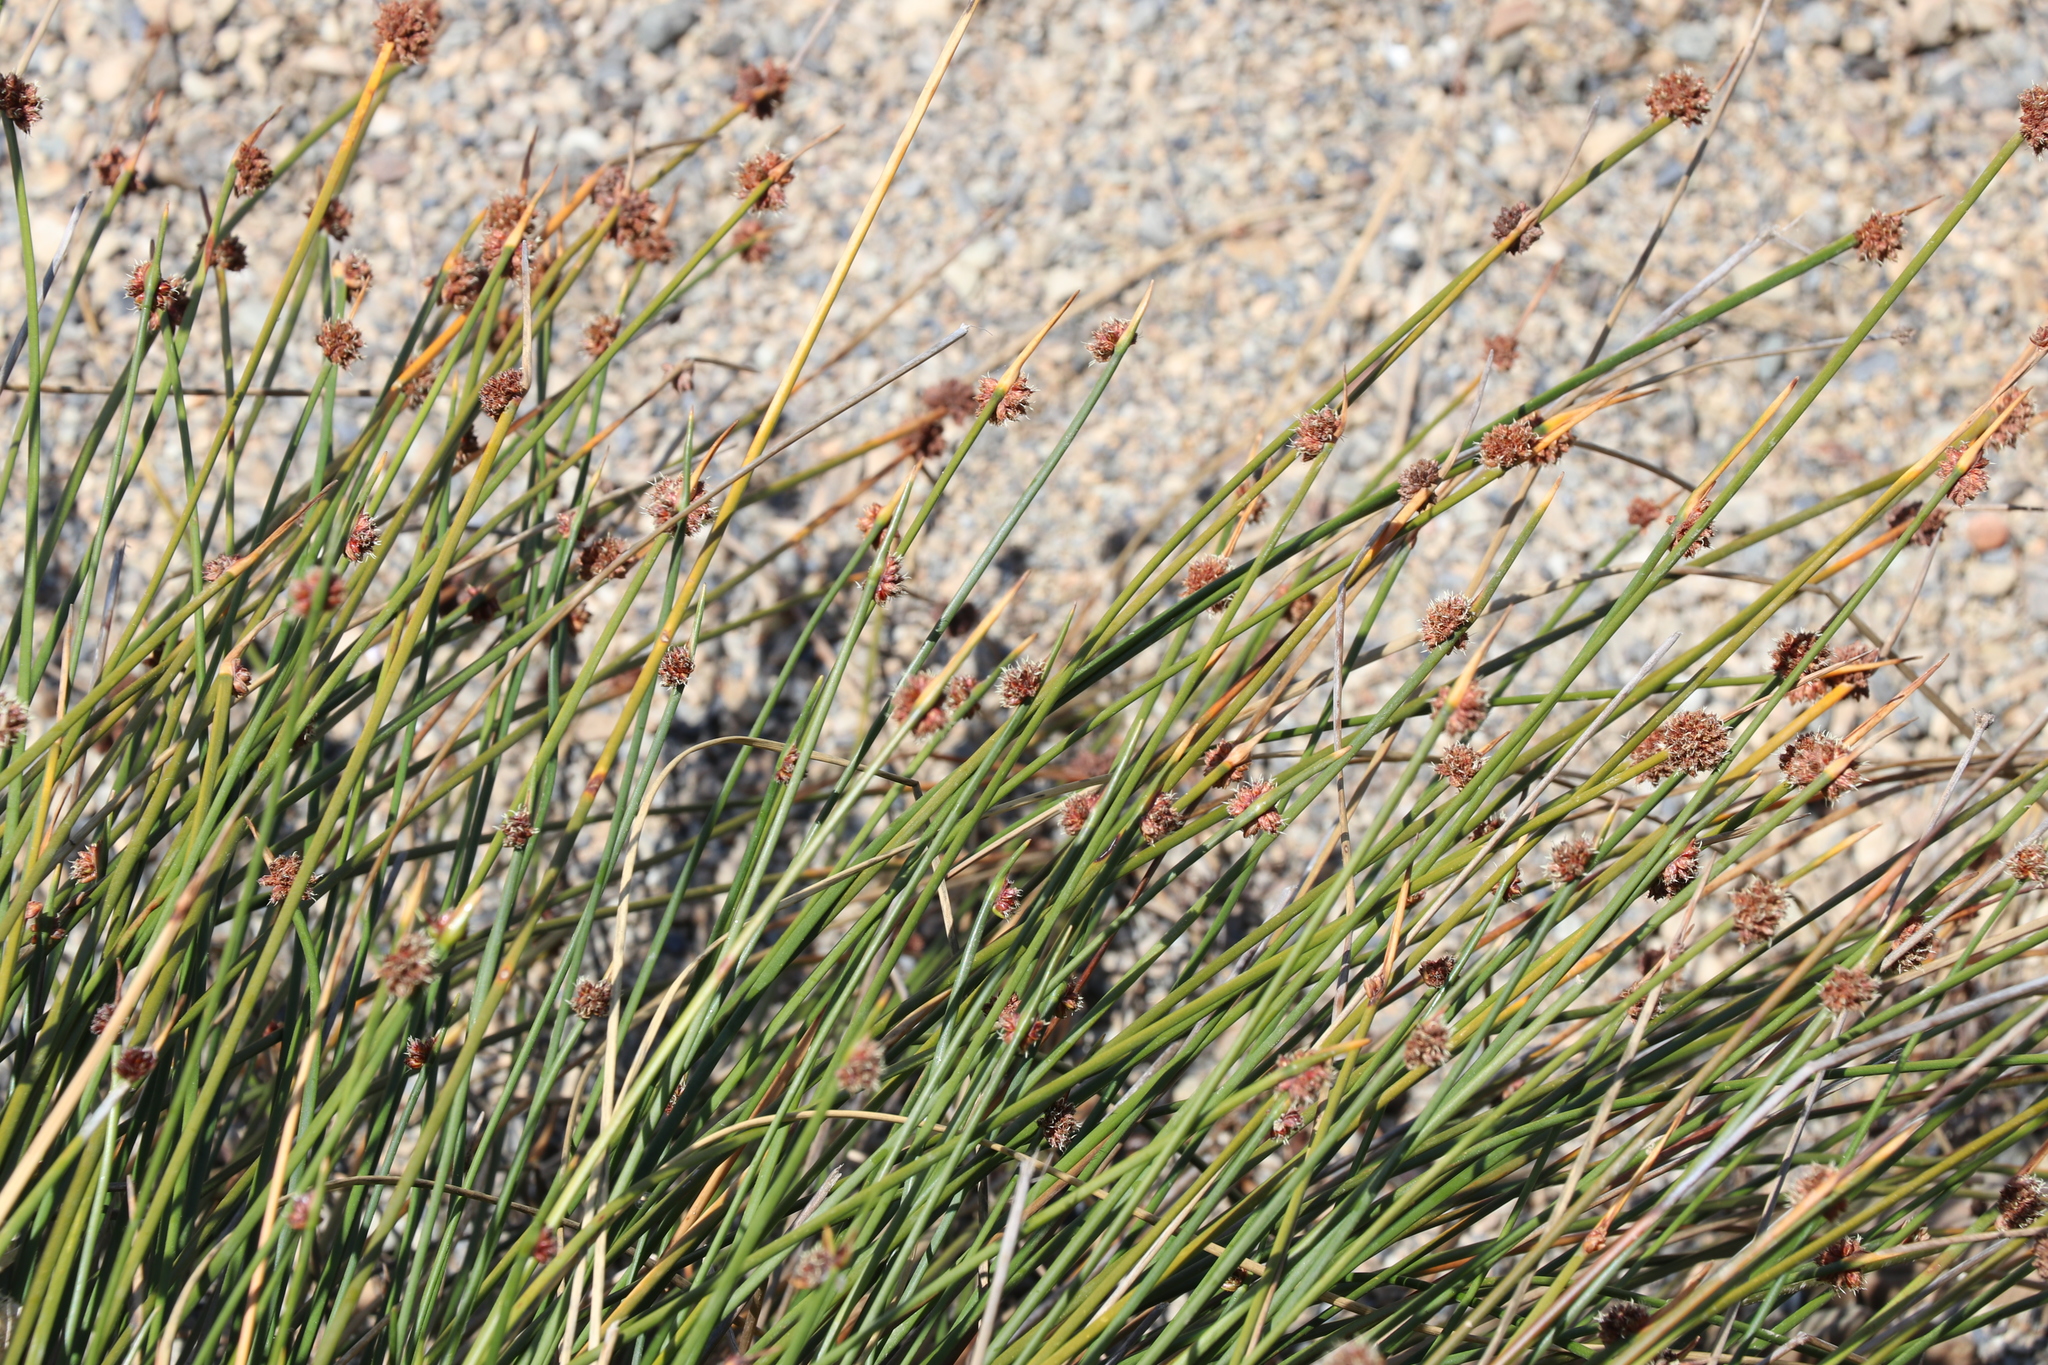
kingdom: Plantae
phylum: Tracheophyta
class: Liliopsida
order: Poales
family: Cyperaceae
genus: Ficinia
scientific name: Ficinia nodosa
